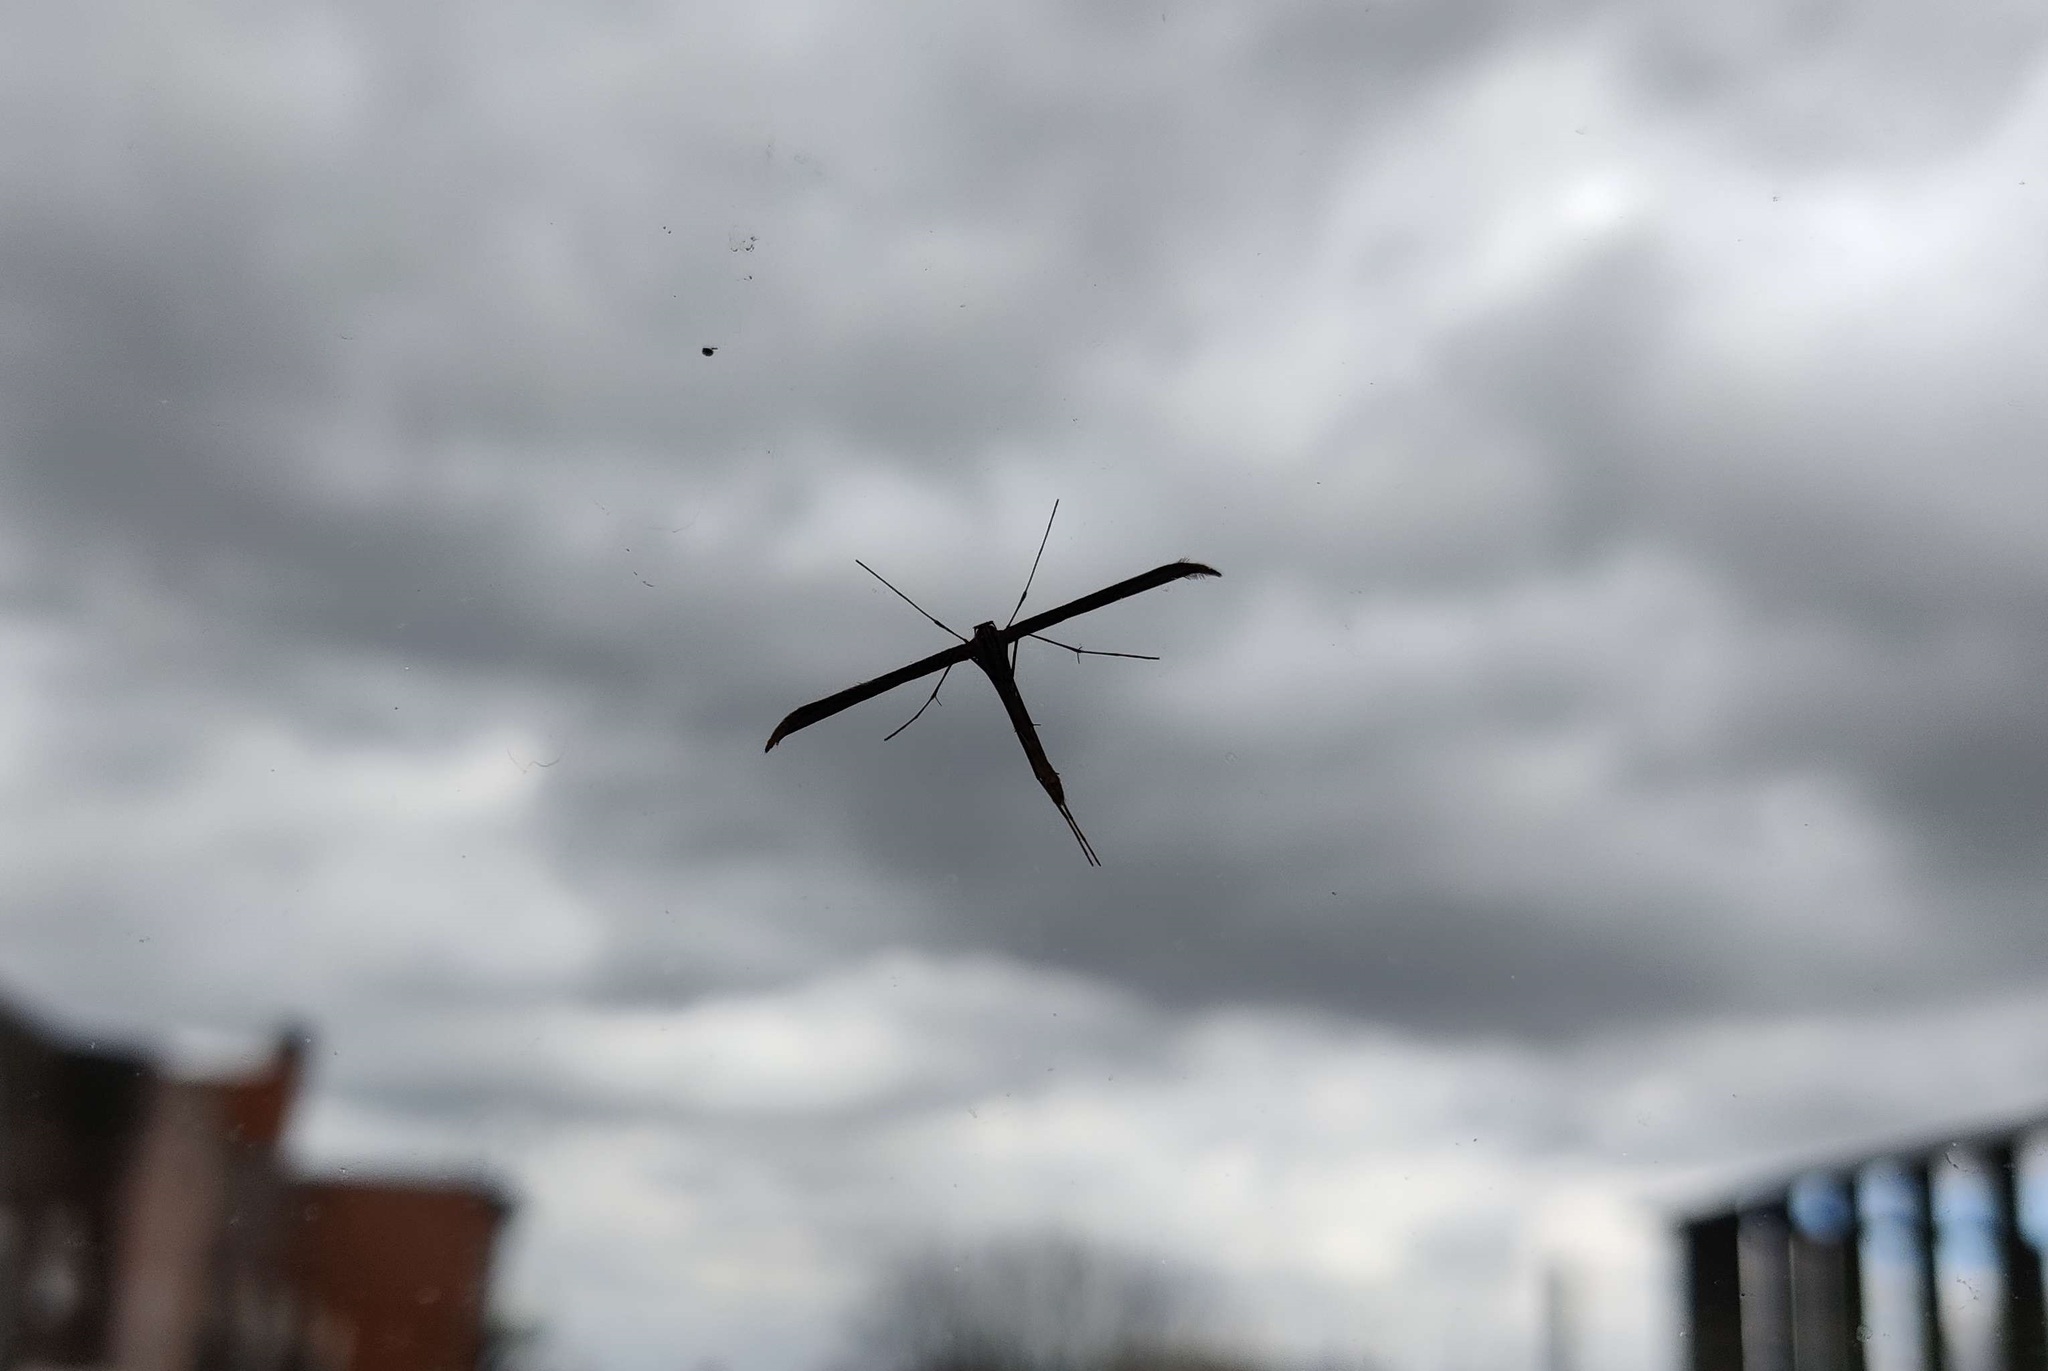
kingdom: Animalia
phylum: Arthropoda
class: Insecta
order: Lepidoptera
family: Pterophoridae
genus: Emmelina
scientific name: Emmelina monodactyla
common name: Common plume
